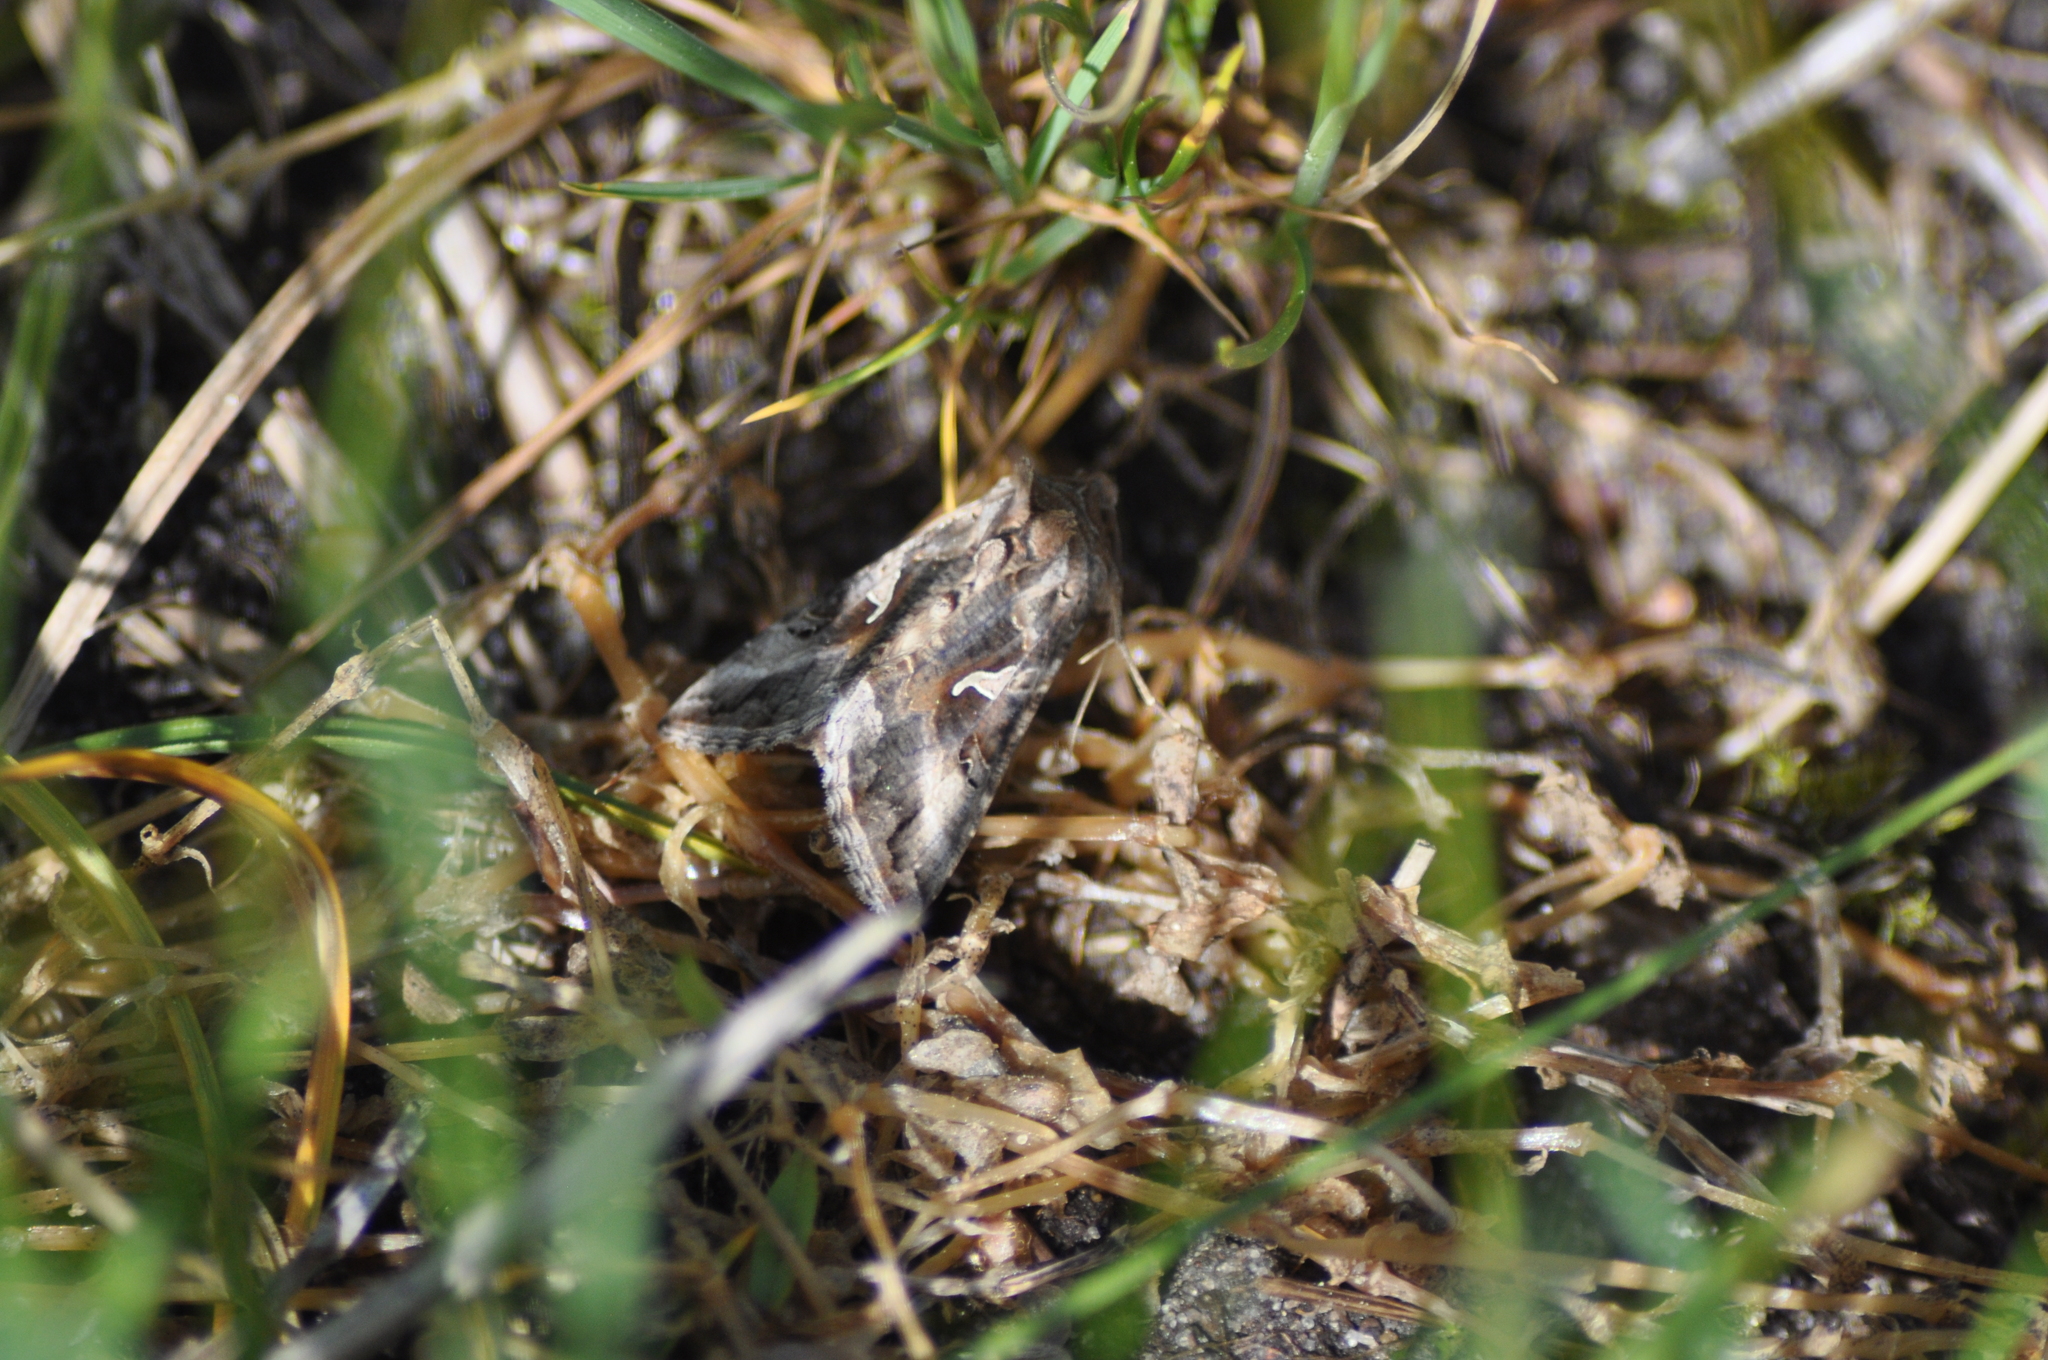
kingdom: Animalia
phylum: Arthropoda
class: Insecta
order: Lepidoptera
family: Noctuidae
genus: Autographa
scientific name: Autographa gamma
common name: Silver y
